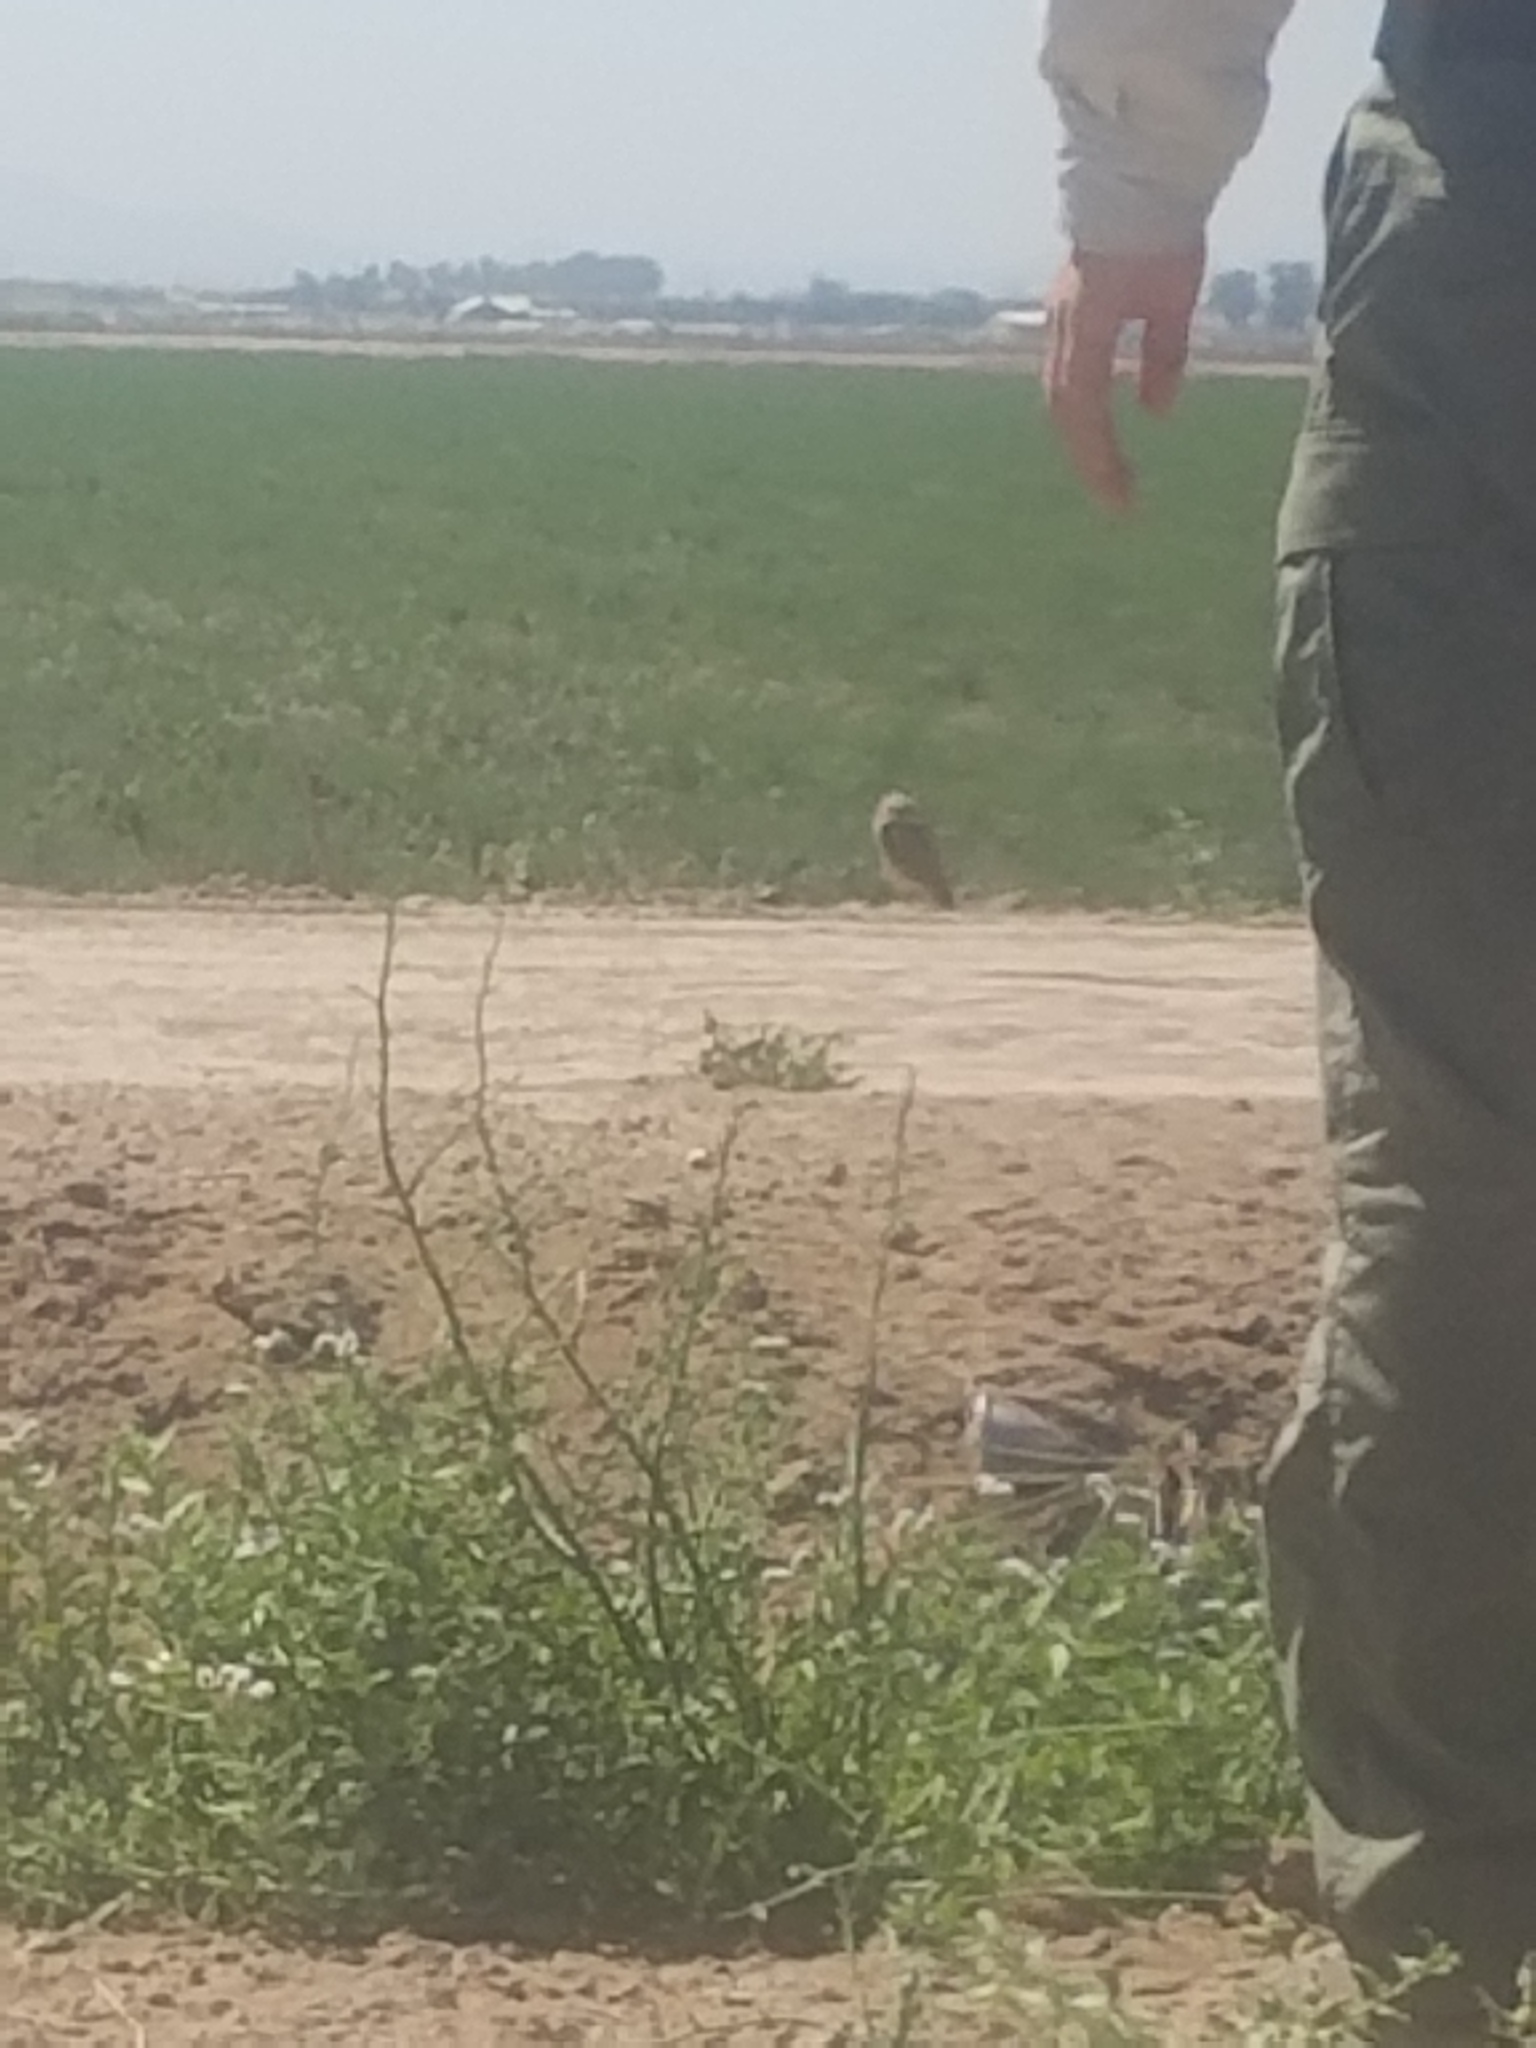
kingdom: Animalia
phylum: Chordata
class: Aves
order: Strigiformes
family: Strigidae
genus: Athene
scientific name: Athene cunicularia
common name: Burrowing owl
